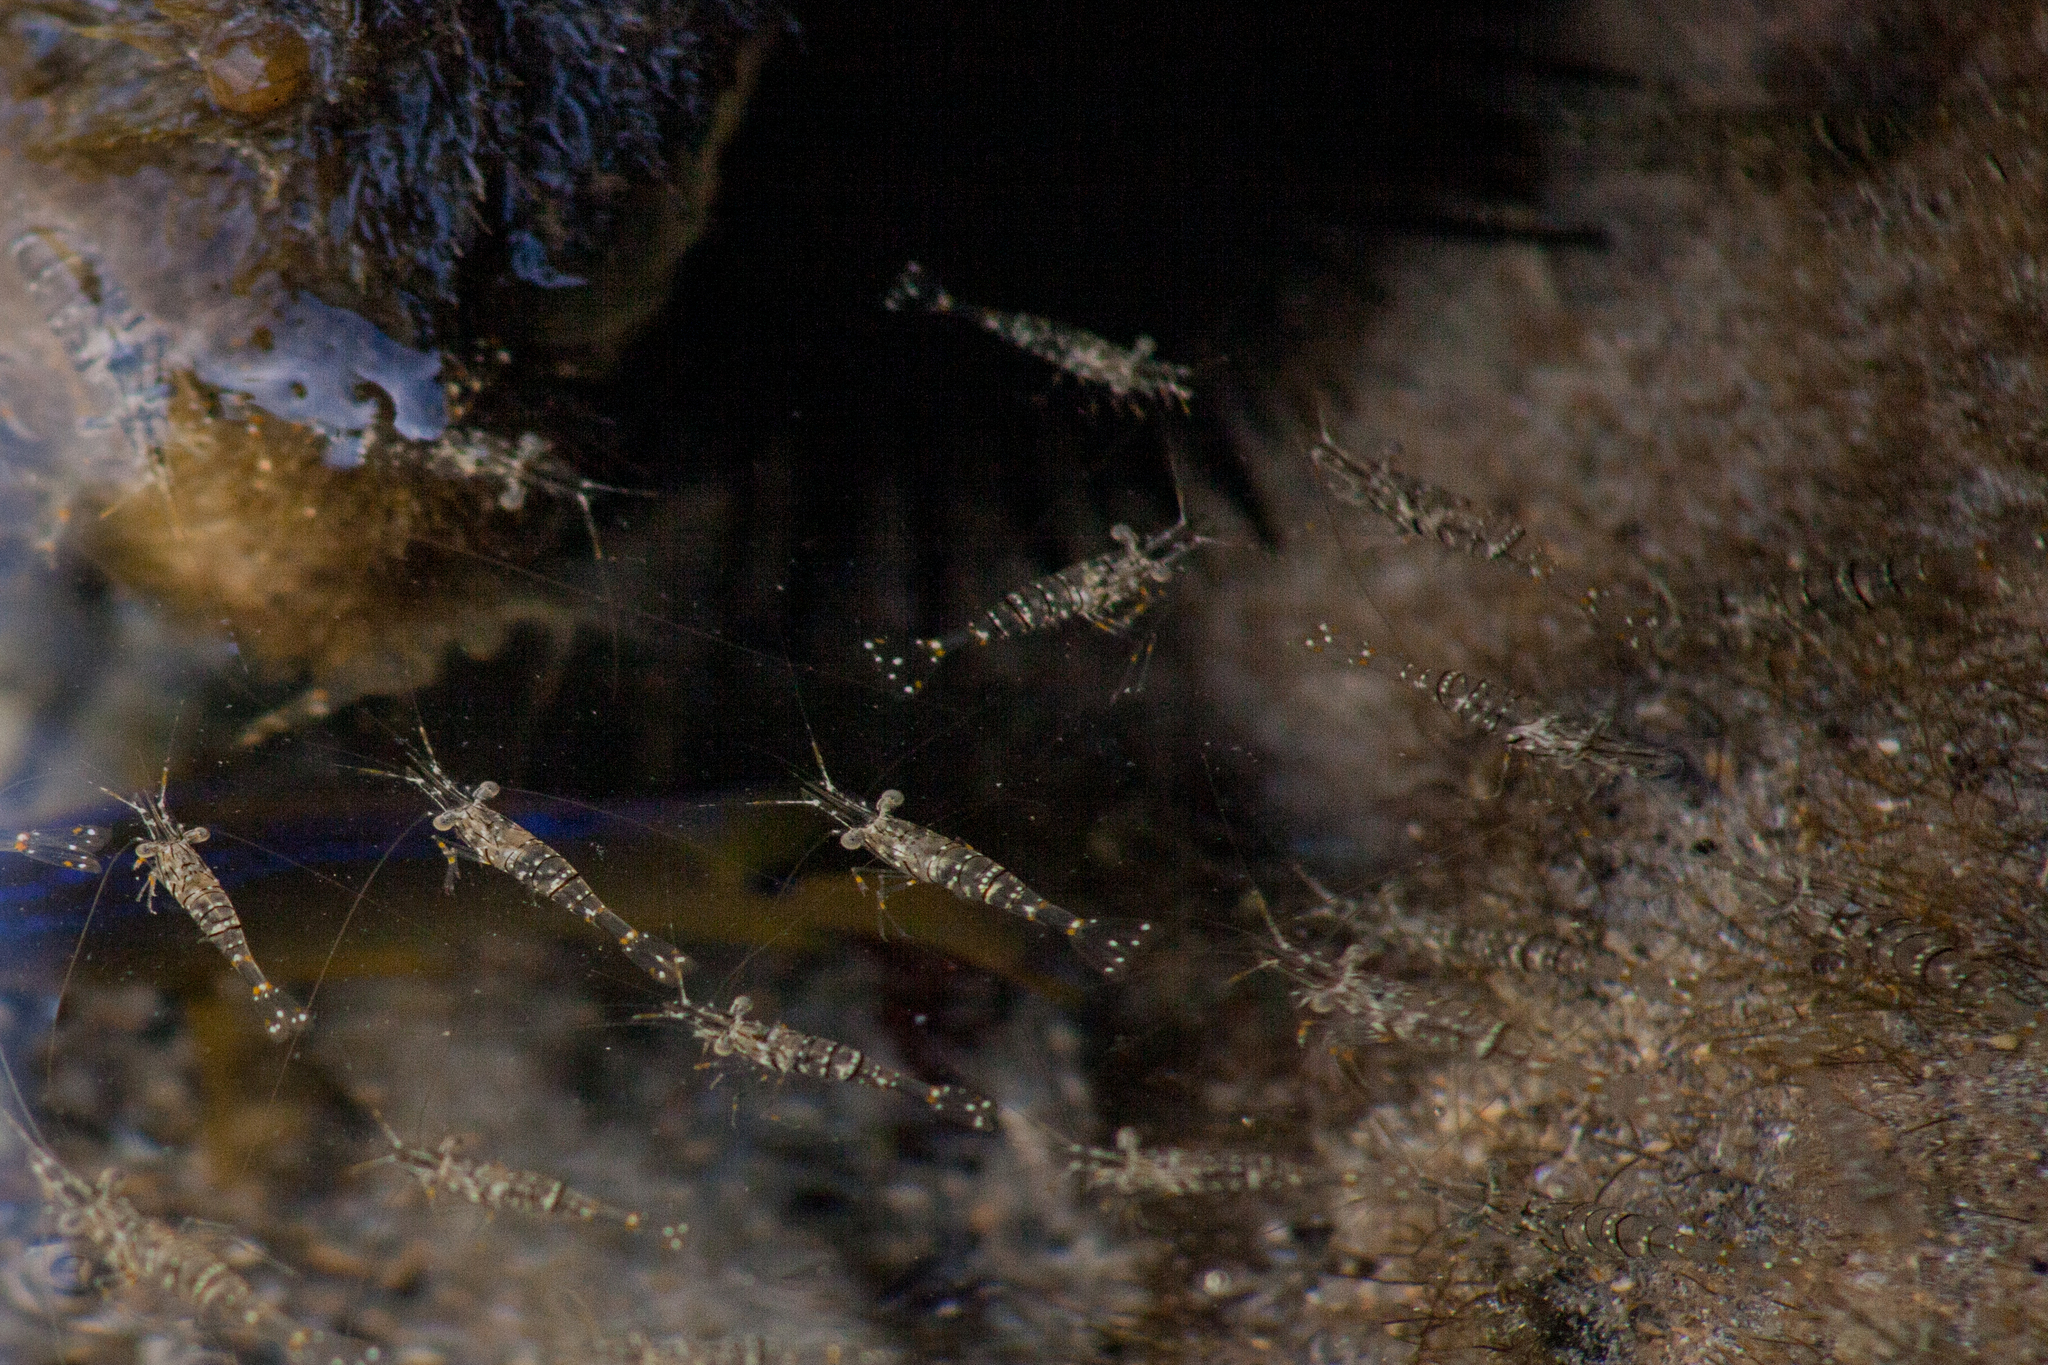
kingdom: Animalia
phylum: Arthropoda
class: Malacostraca
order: Decapoda
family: Palaemonidae
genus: Palaemon
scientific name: Palaemon northropi
